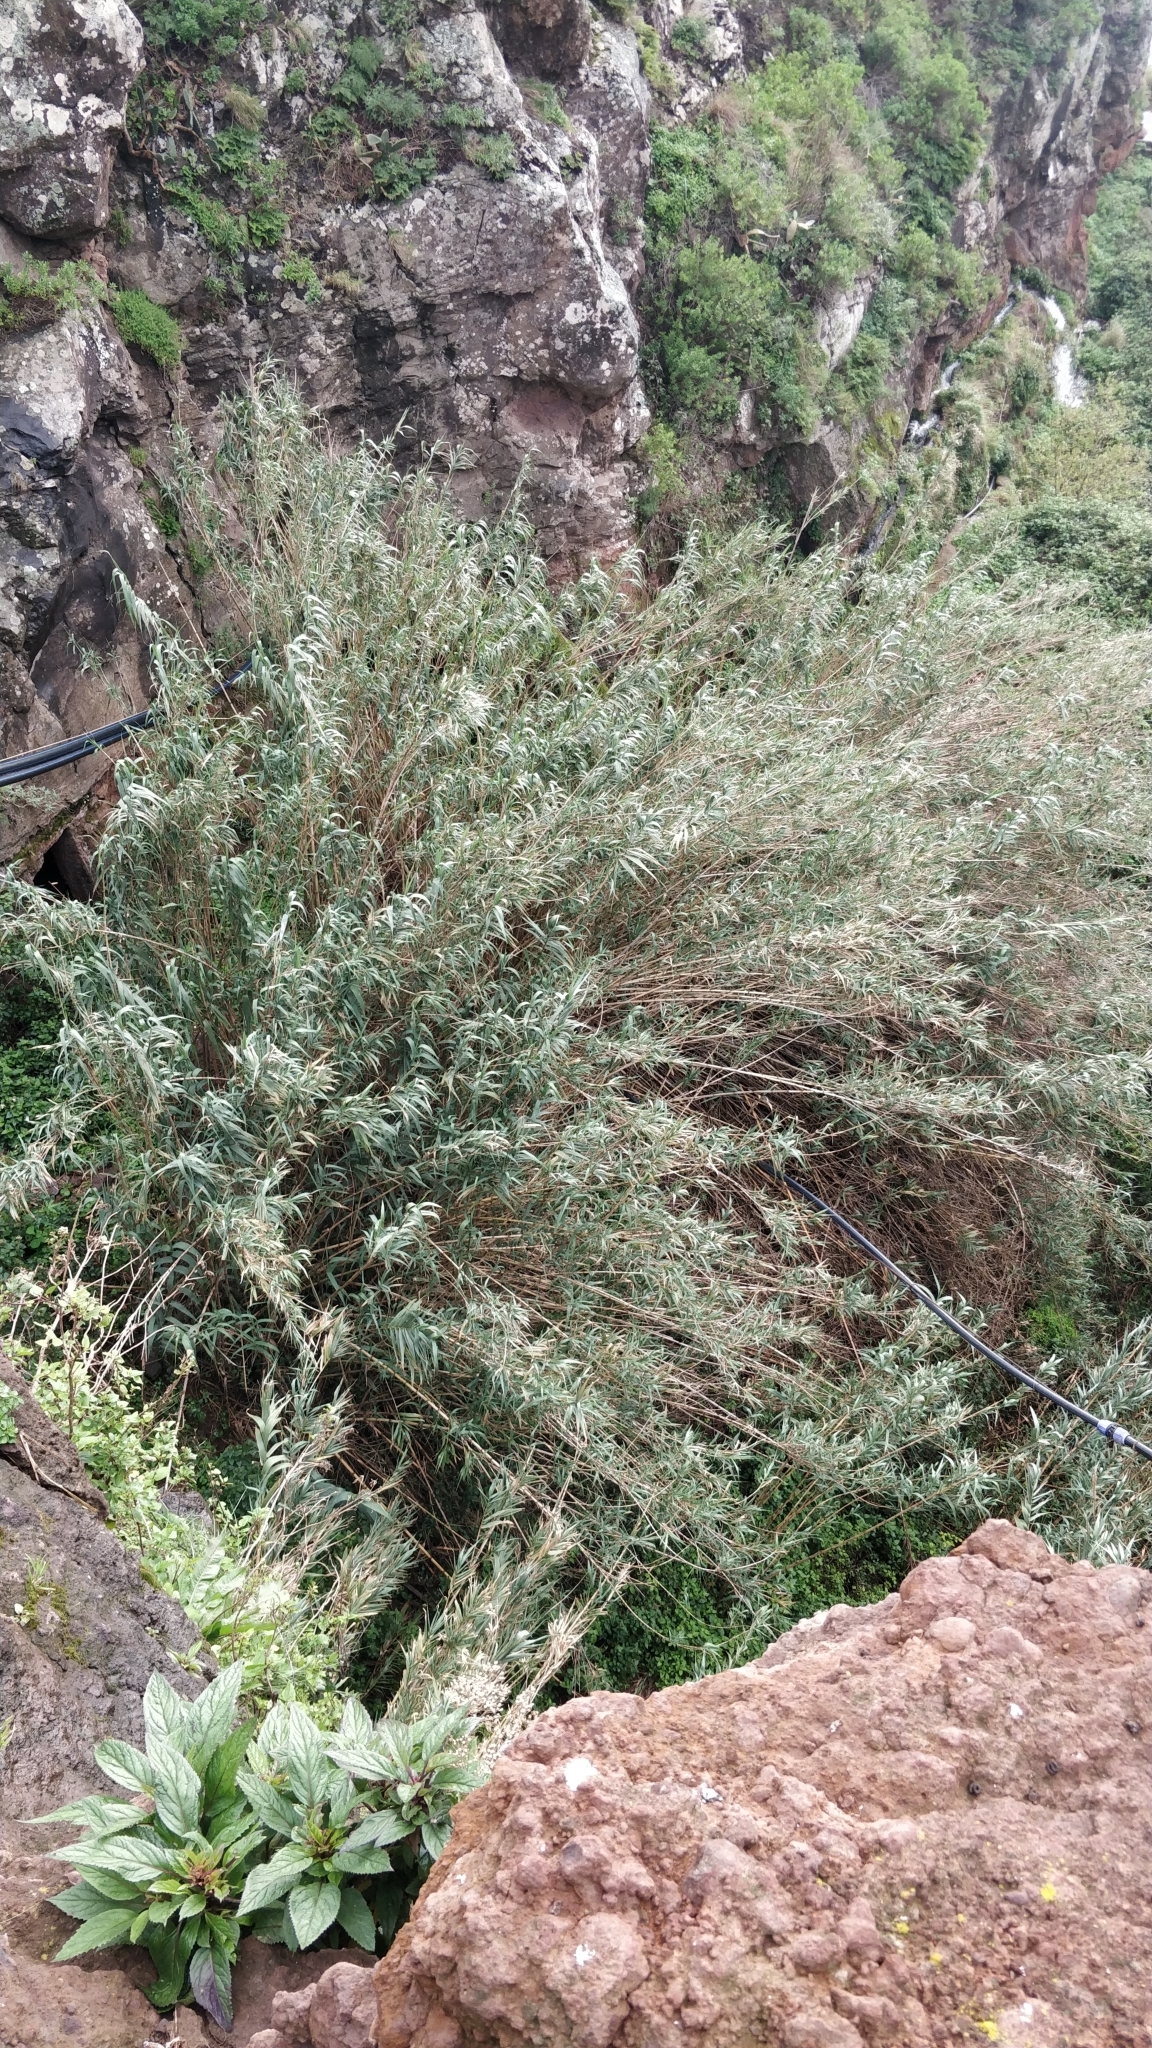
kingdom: Plantae
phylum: Tracheophyta
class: Liliopsida
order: Poales
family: Poaceae
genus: Arundo
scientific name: Arundo donax
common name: Giant reed
